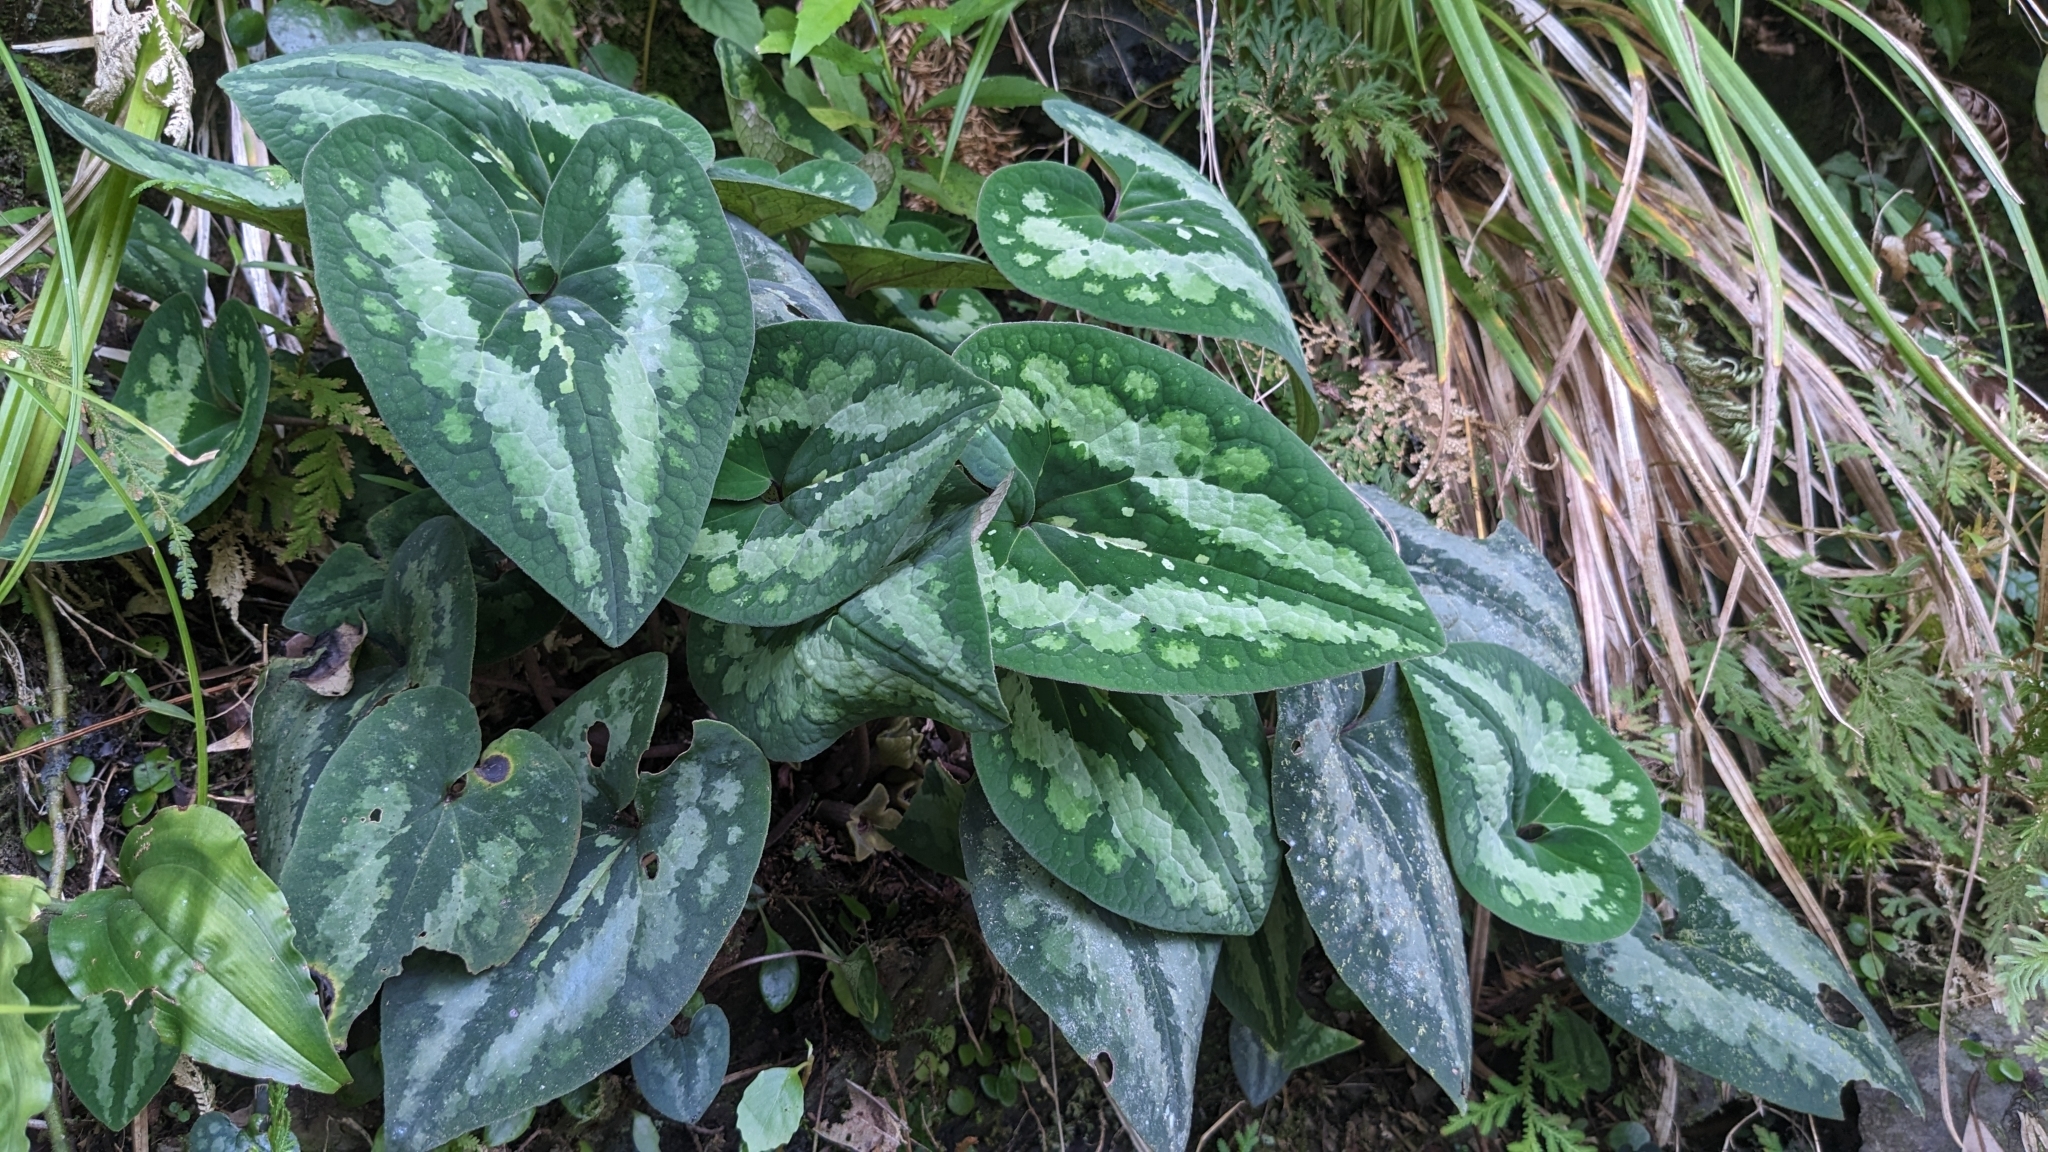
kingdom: Plantae
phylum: Tracheophyta
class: Magnoliopsida
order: Piperales
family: Aristolochiaceae
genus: Asarum
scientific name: Asarum chatienshanianum
